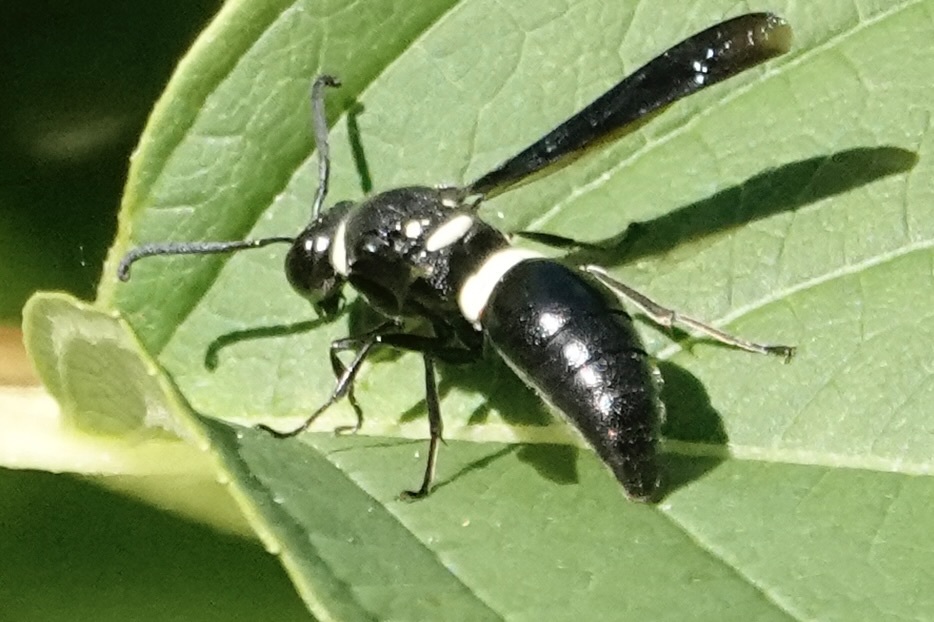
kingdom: Animalia
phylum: Arthropoda
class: Insecta
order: Hymenoptera
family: Eumenidae
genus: Monobia
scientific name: Monobia quadridens
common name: Four-toothed mason wasp
